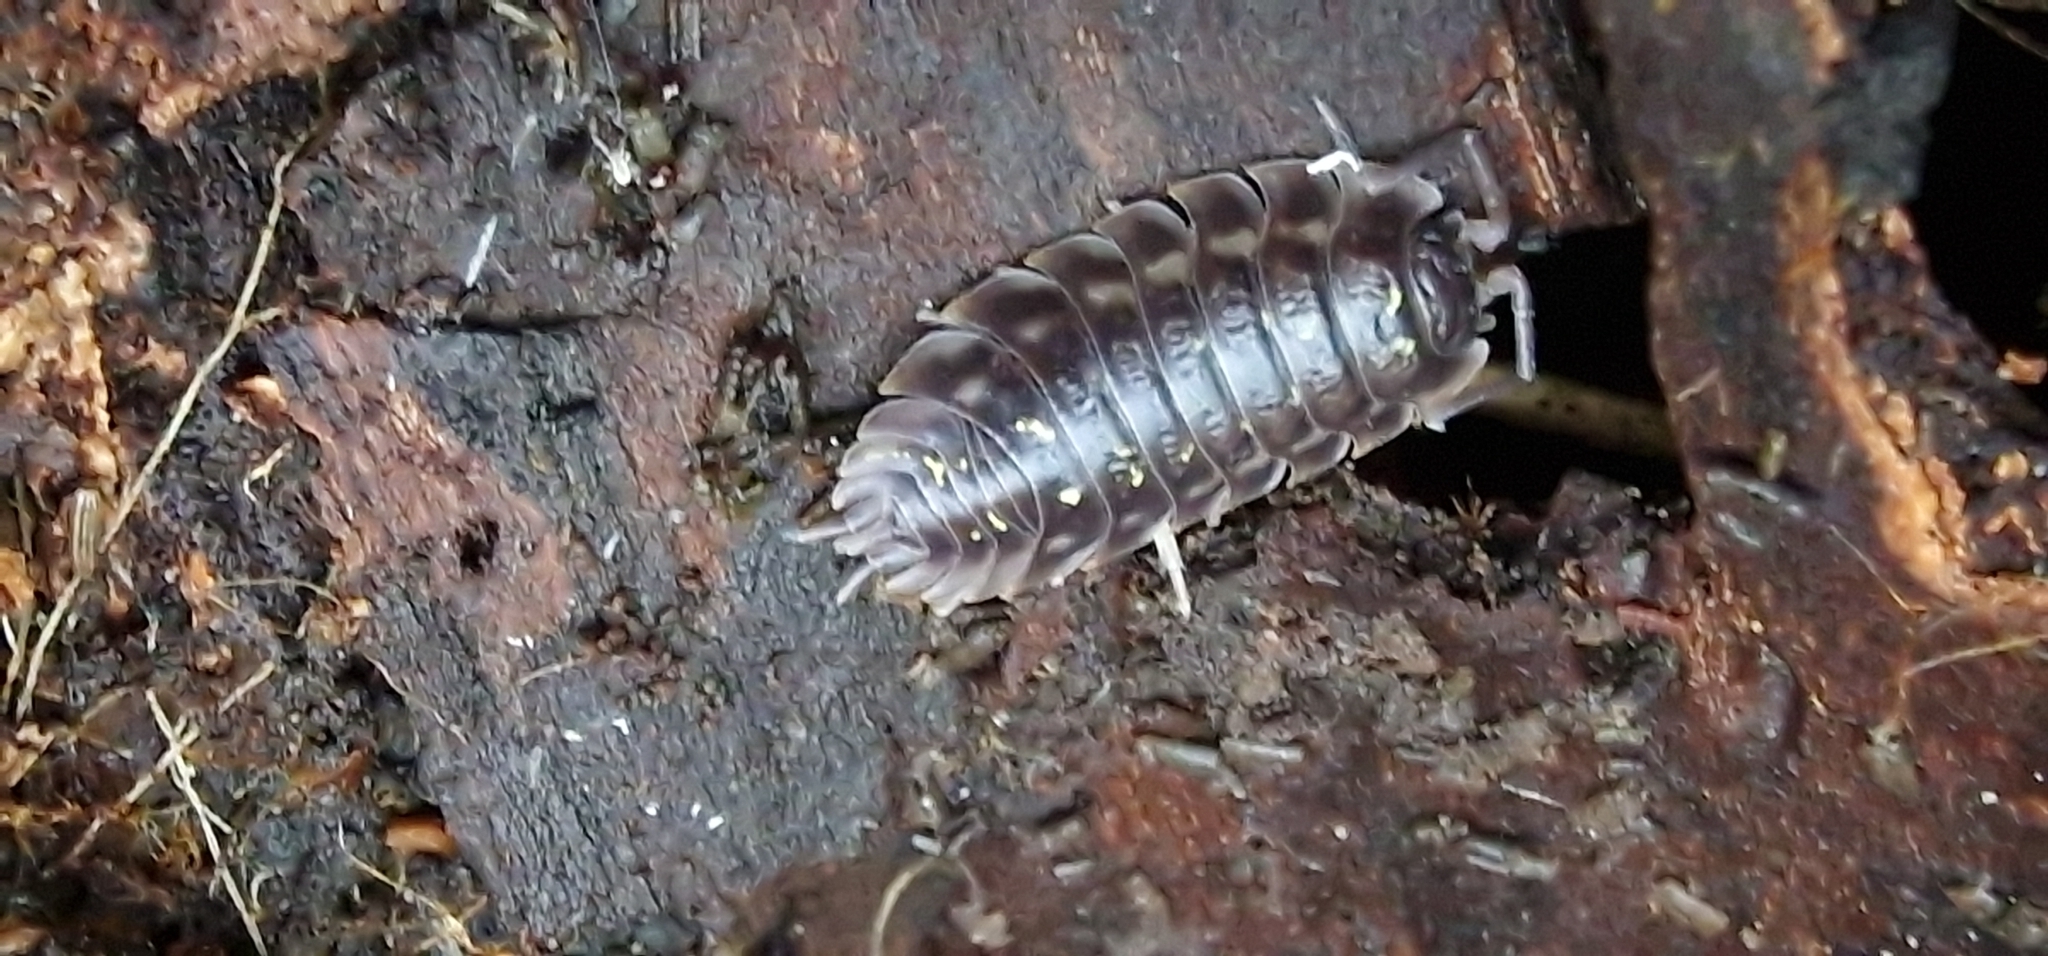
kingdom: Animalia
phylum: Arthropoda
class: Malacostraca
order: Isopoda
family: Oniscidae
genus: Oniscus
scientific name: Oniscus asellus
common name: Common shiny woodlouse
